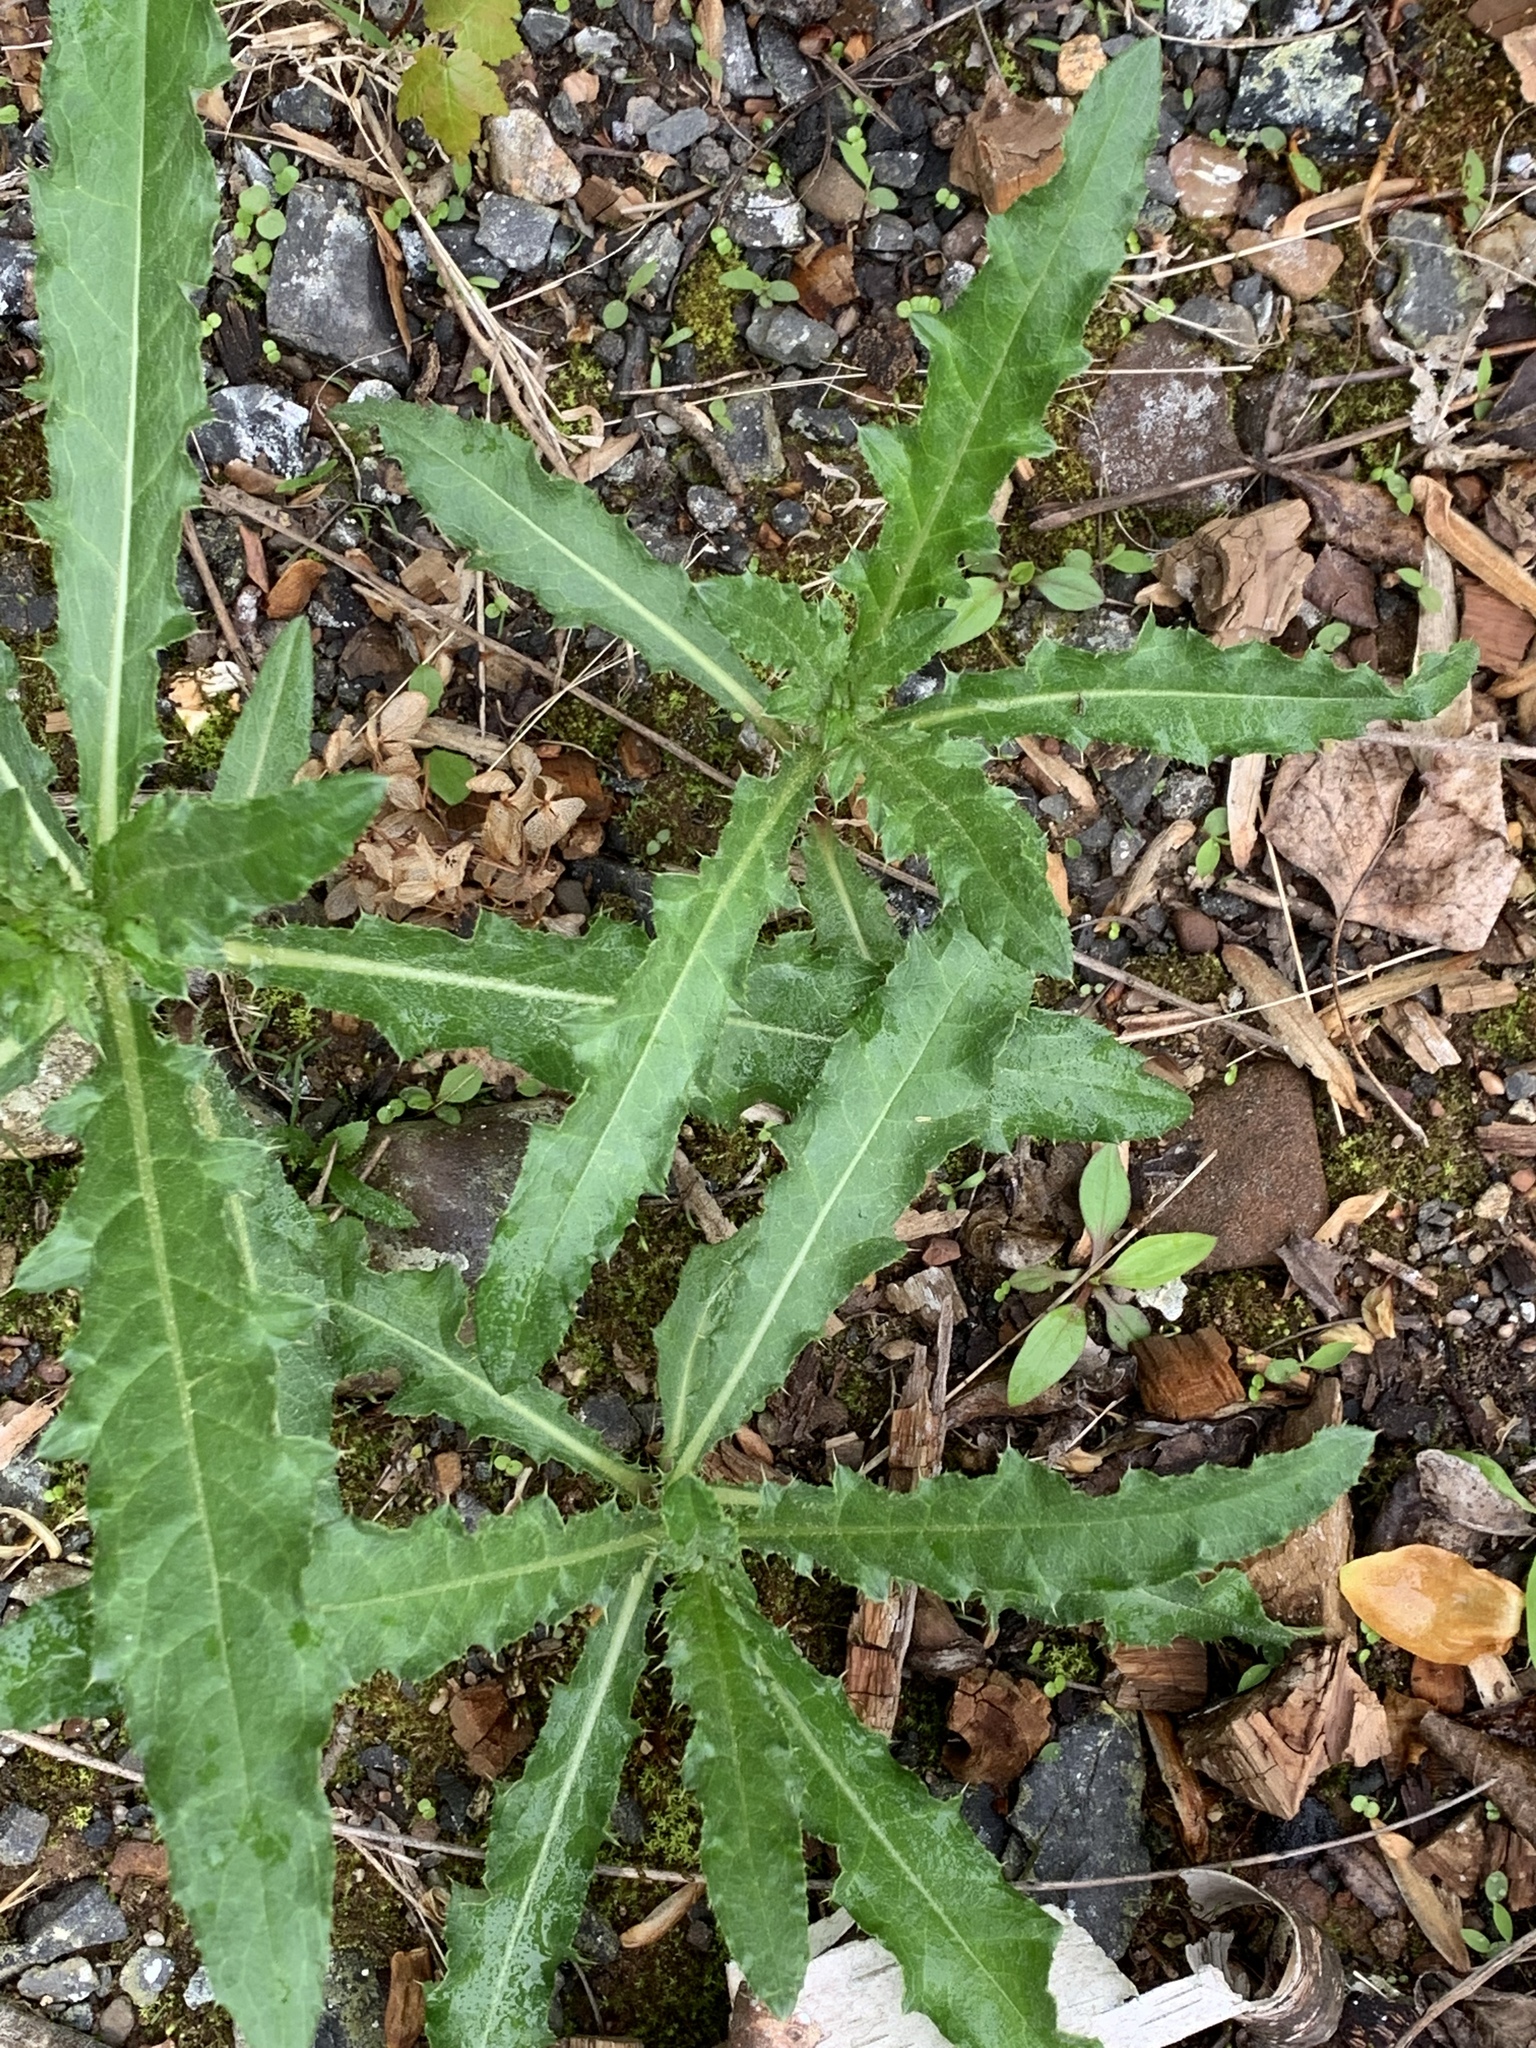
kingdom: Plantae
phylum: Tracheophyta
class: Magnoliopsida
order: Asterales
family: Asteraceae
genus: Cirsium
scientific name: Cirsium arvense
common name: Creeping thistle
